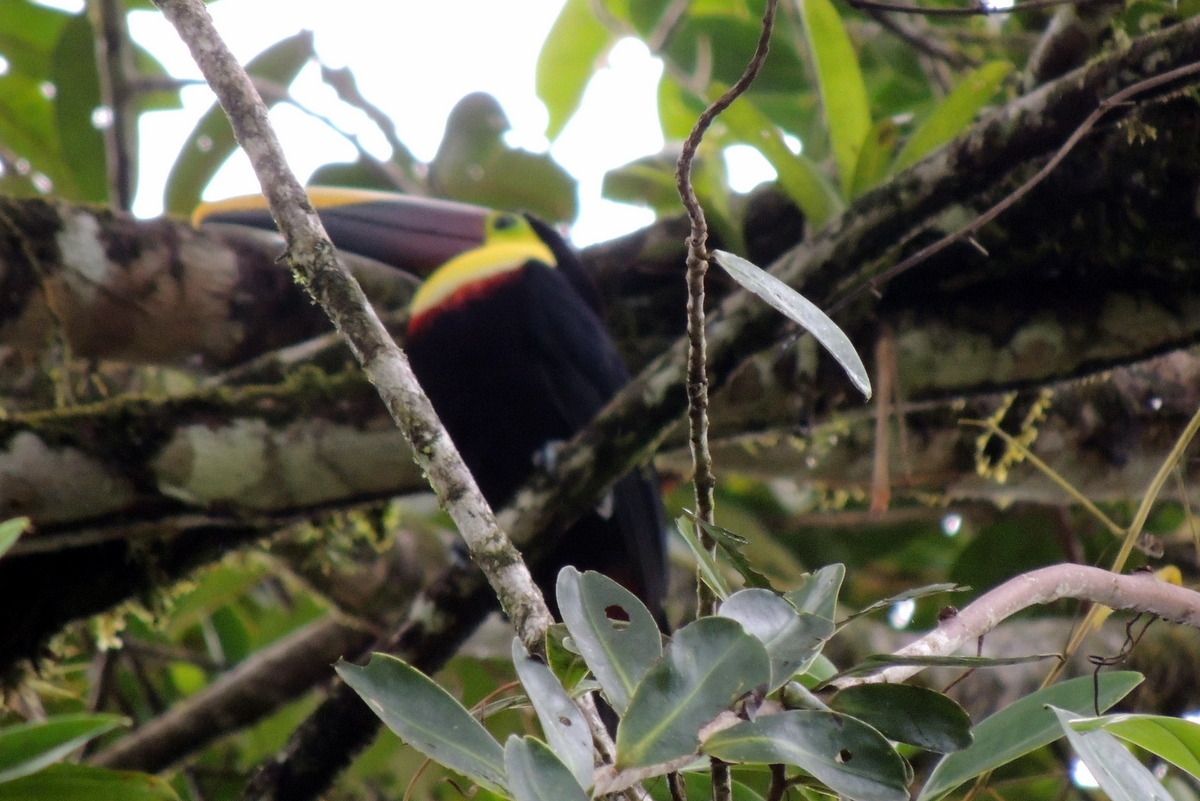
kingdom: Animalia
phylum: Chordata
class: Aves
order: Piciformes
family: Ramphastidae
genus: Ramphastos
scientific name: Ramphastos ambiguus
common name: Yellow-throated toucan
